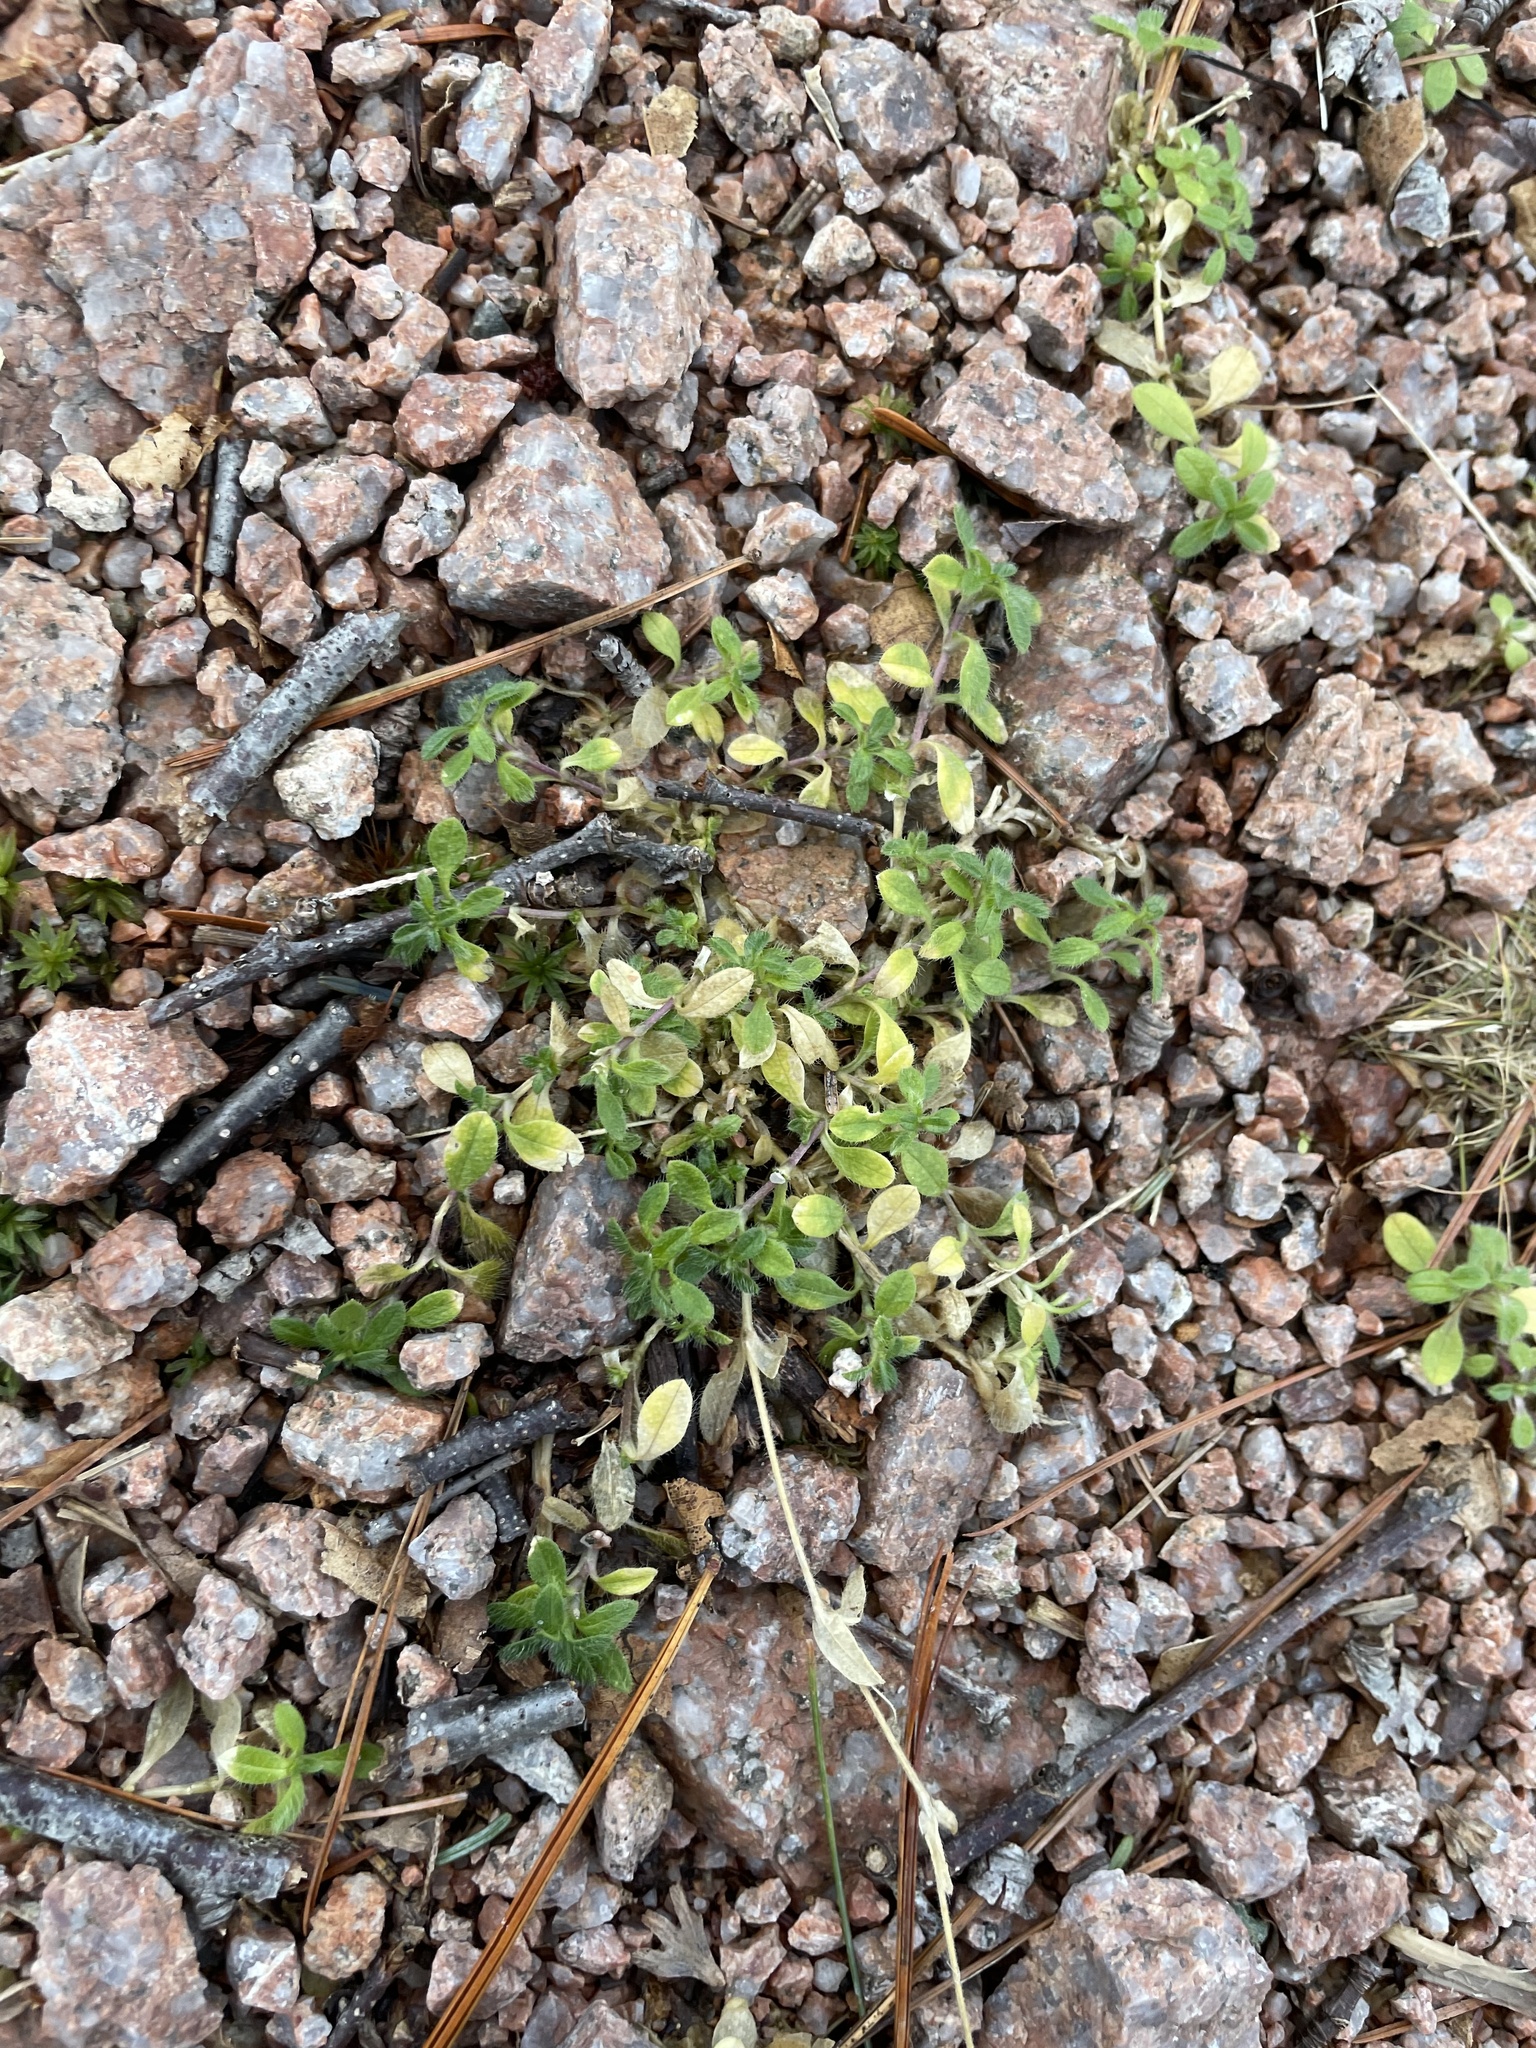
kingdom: Plantae
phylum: Tracheophyta
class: Magnoliopsida
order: Caryophyllales
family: Caryophyllaceae
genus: Cerastium
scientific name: Cerastium fontanum
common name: Common mouse-ear
